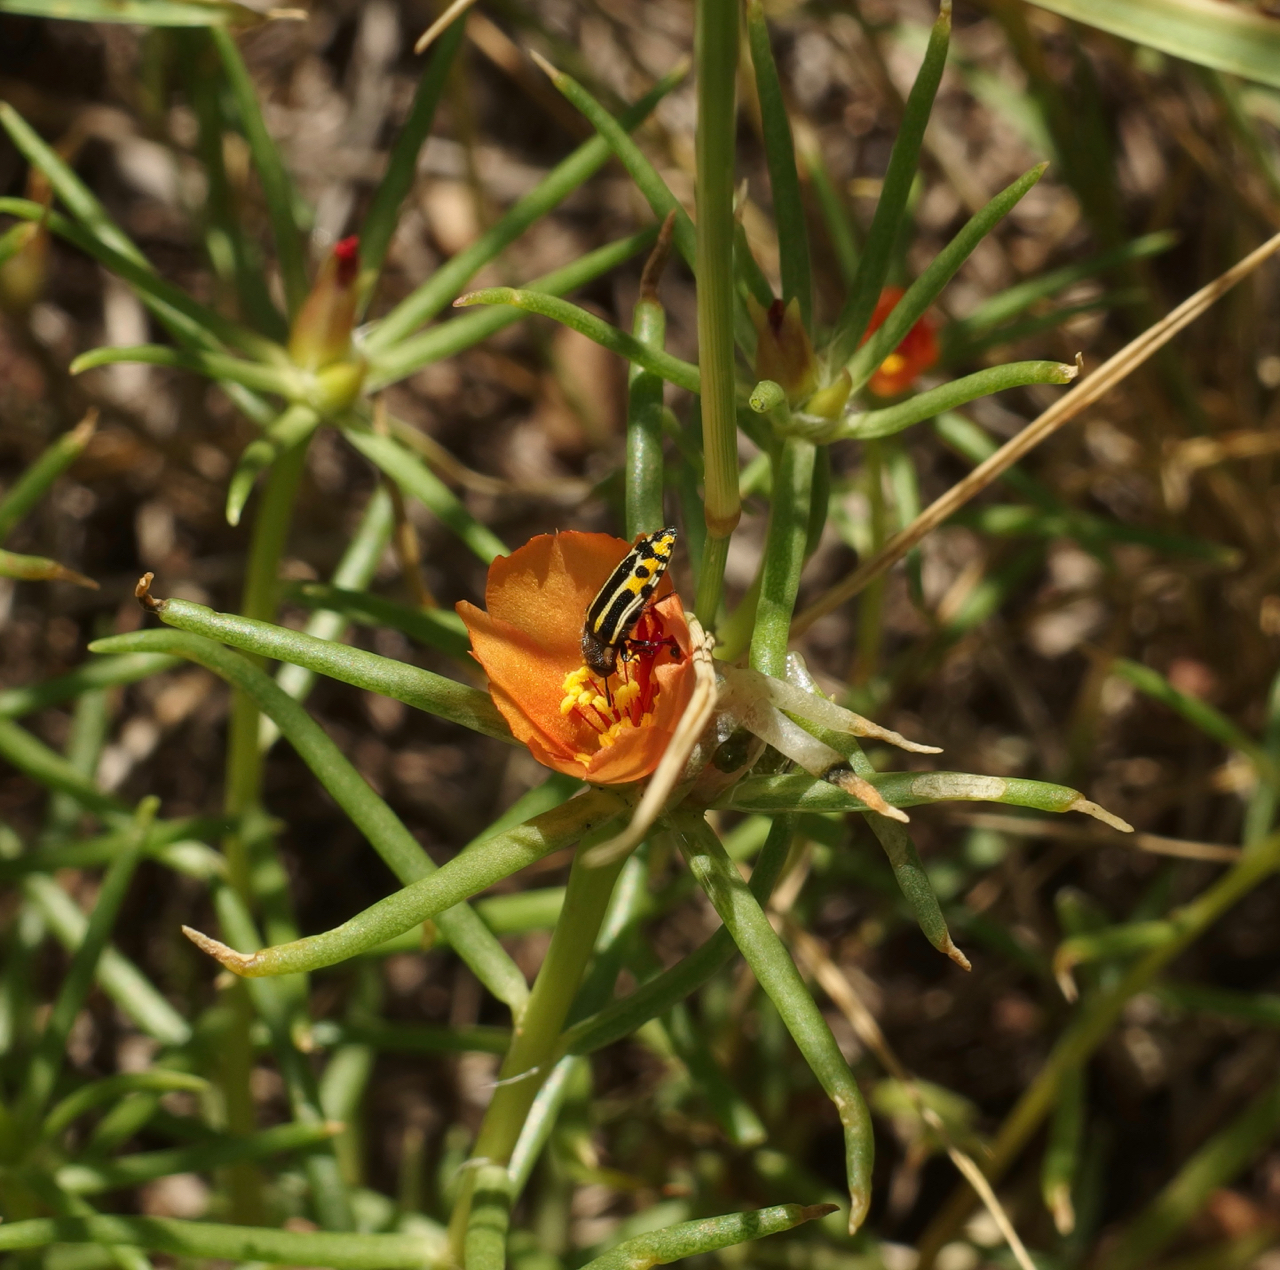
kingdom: Plantae
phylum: Tracheophyta
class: Magnoliopsida
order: Caryophyllales
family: Portulacaceae
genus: Portulaca
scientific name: Portulaca suffrutescens
